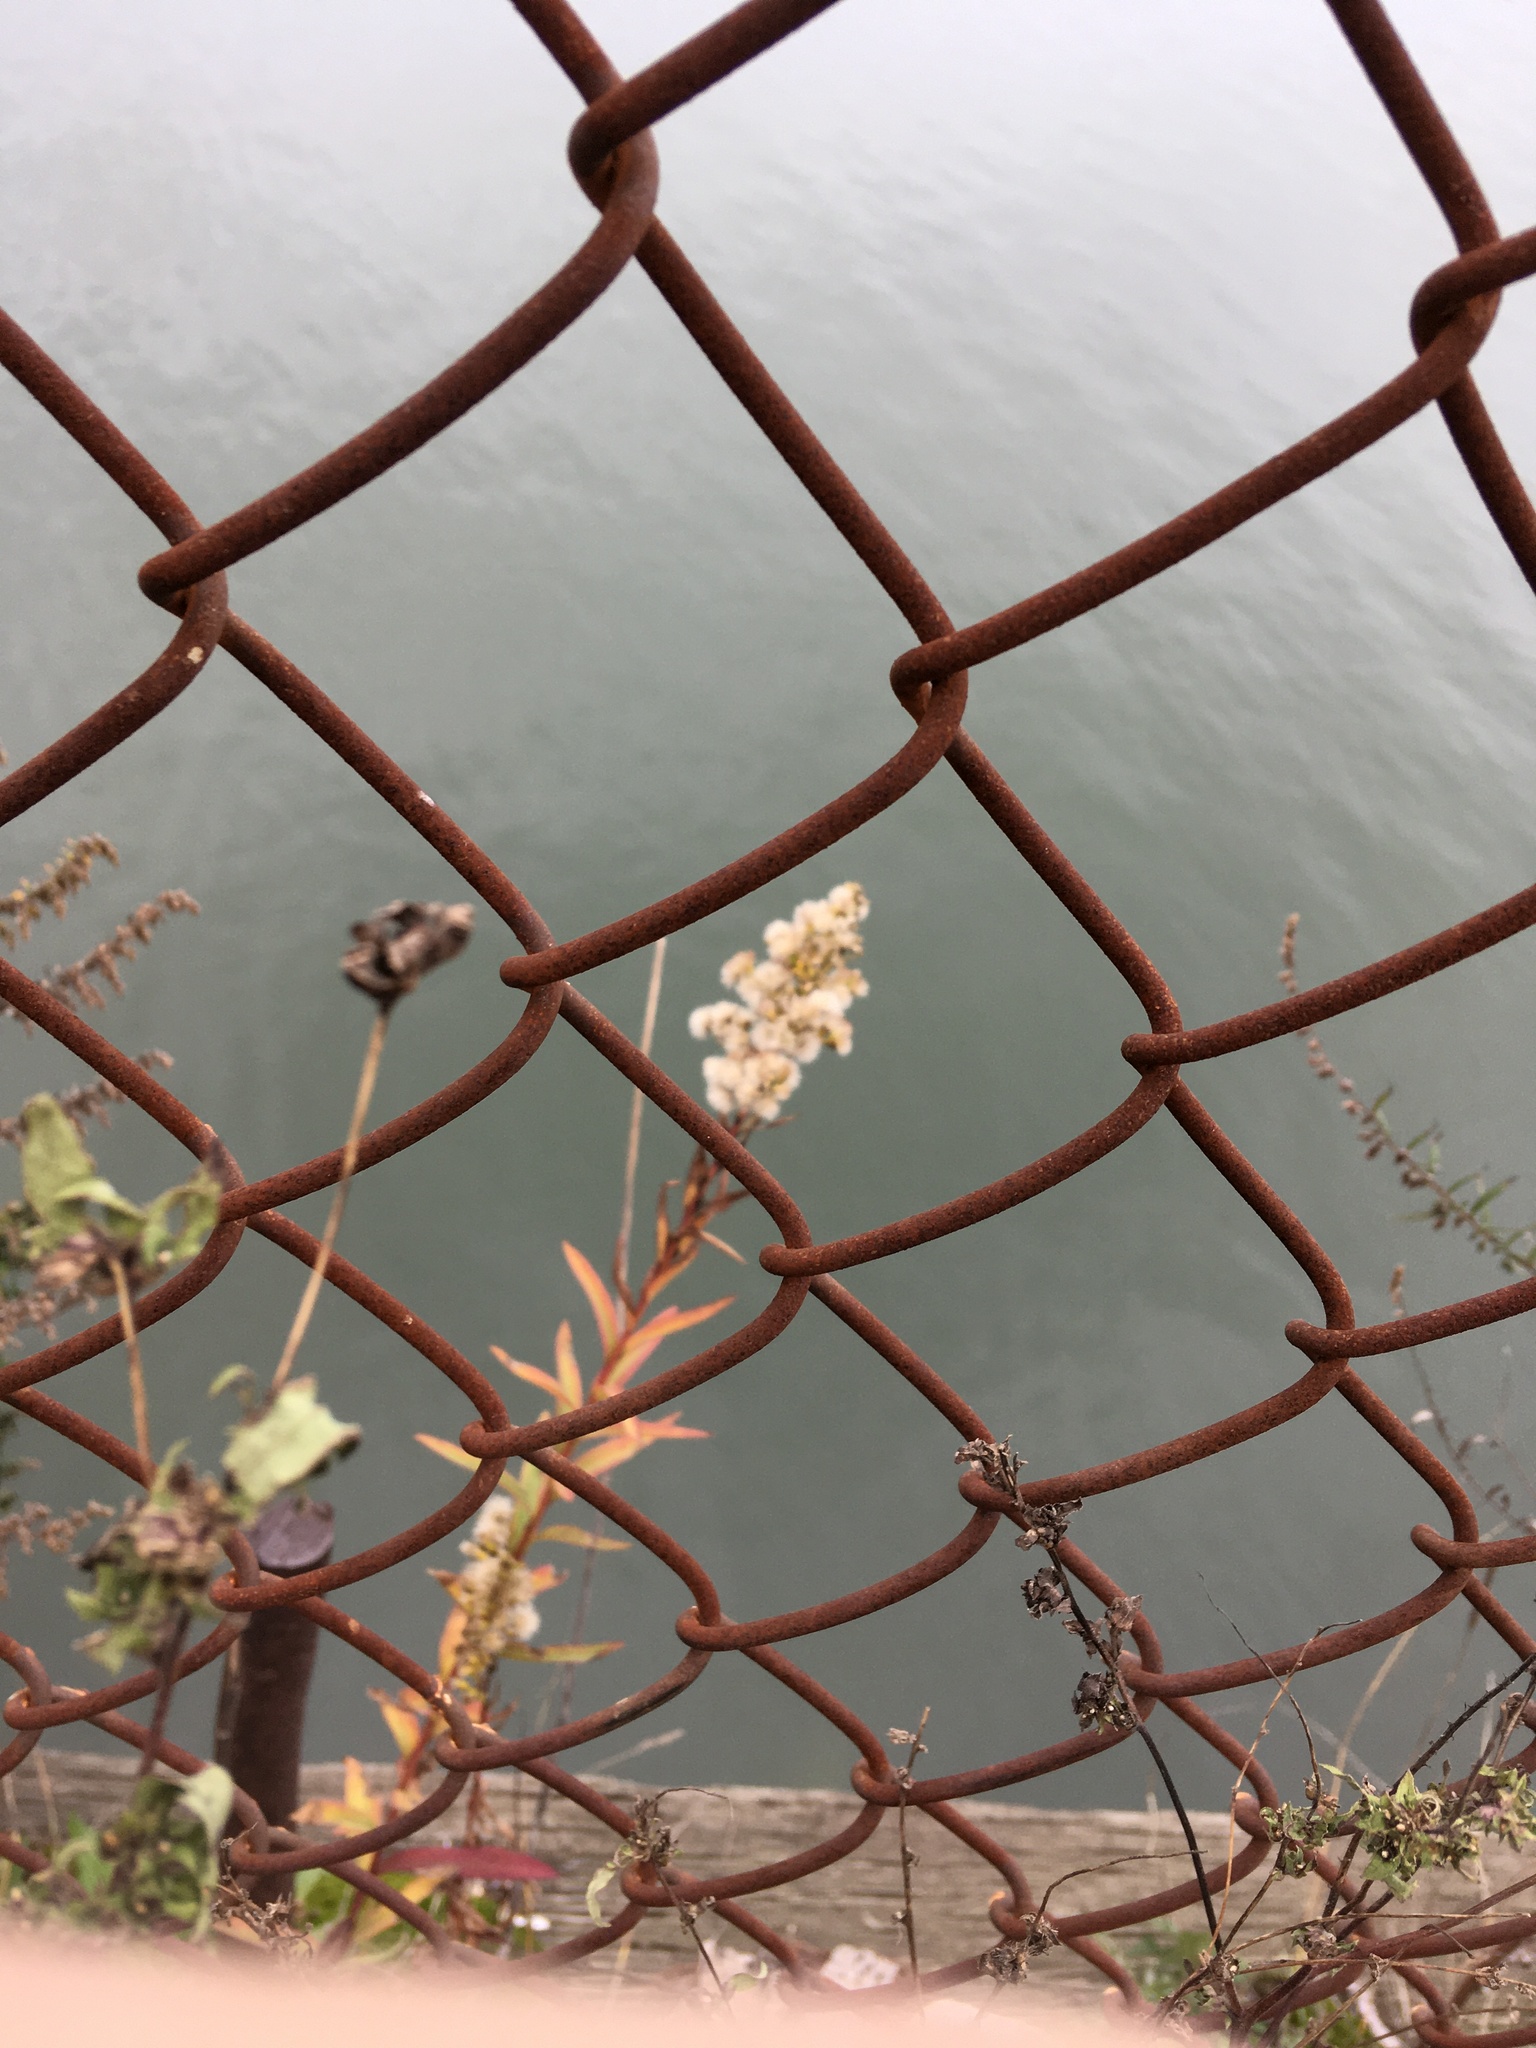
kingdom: Plantae
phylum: Tracheophyta
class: Magnoliopsida
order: Asterales
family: Asteraceae
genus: Solidago
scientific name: Solidago sempervirens
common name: Salt-marsh goldenrod
